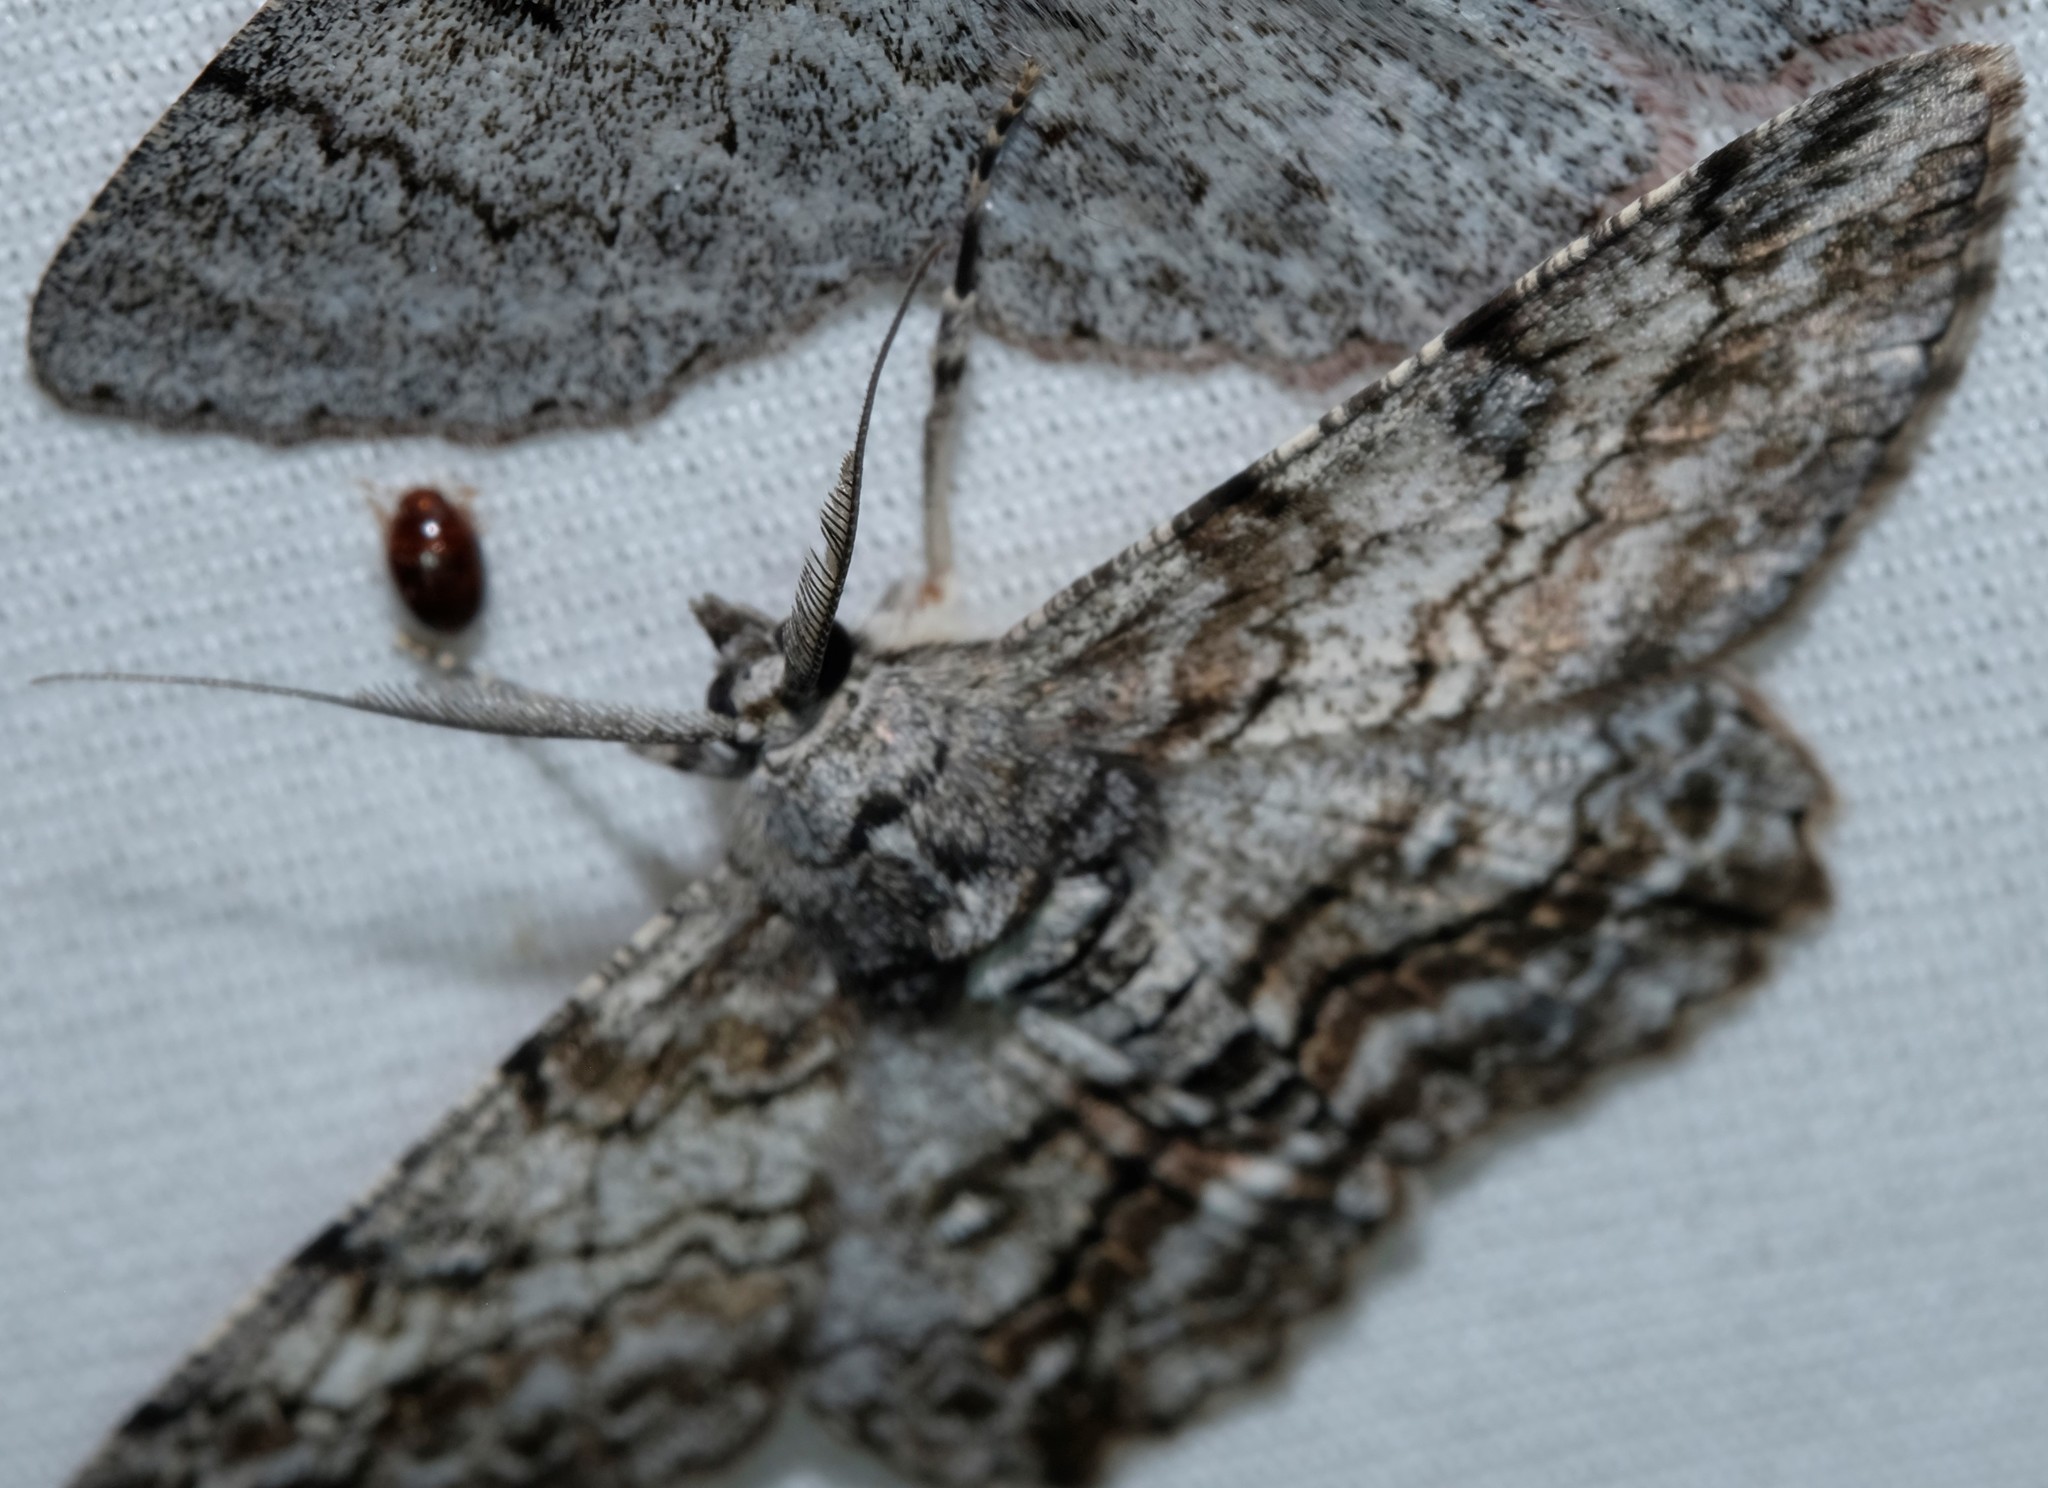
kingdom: Animalia
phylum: Arthropoda
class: Insecta
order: Lepidoptera
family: Geometridae
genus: Cleora
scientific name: Cleora
